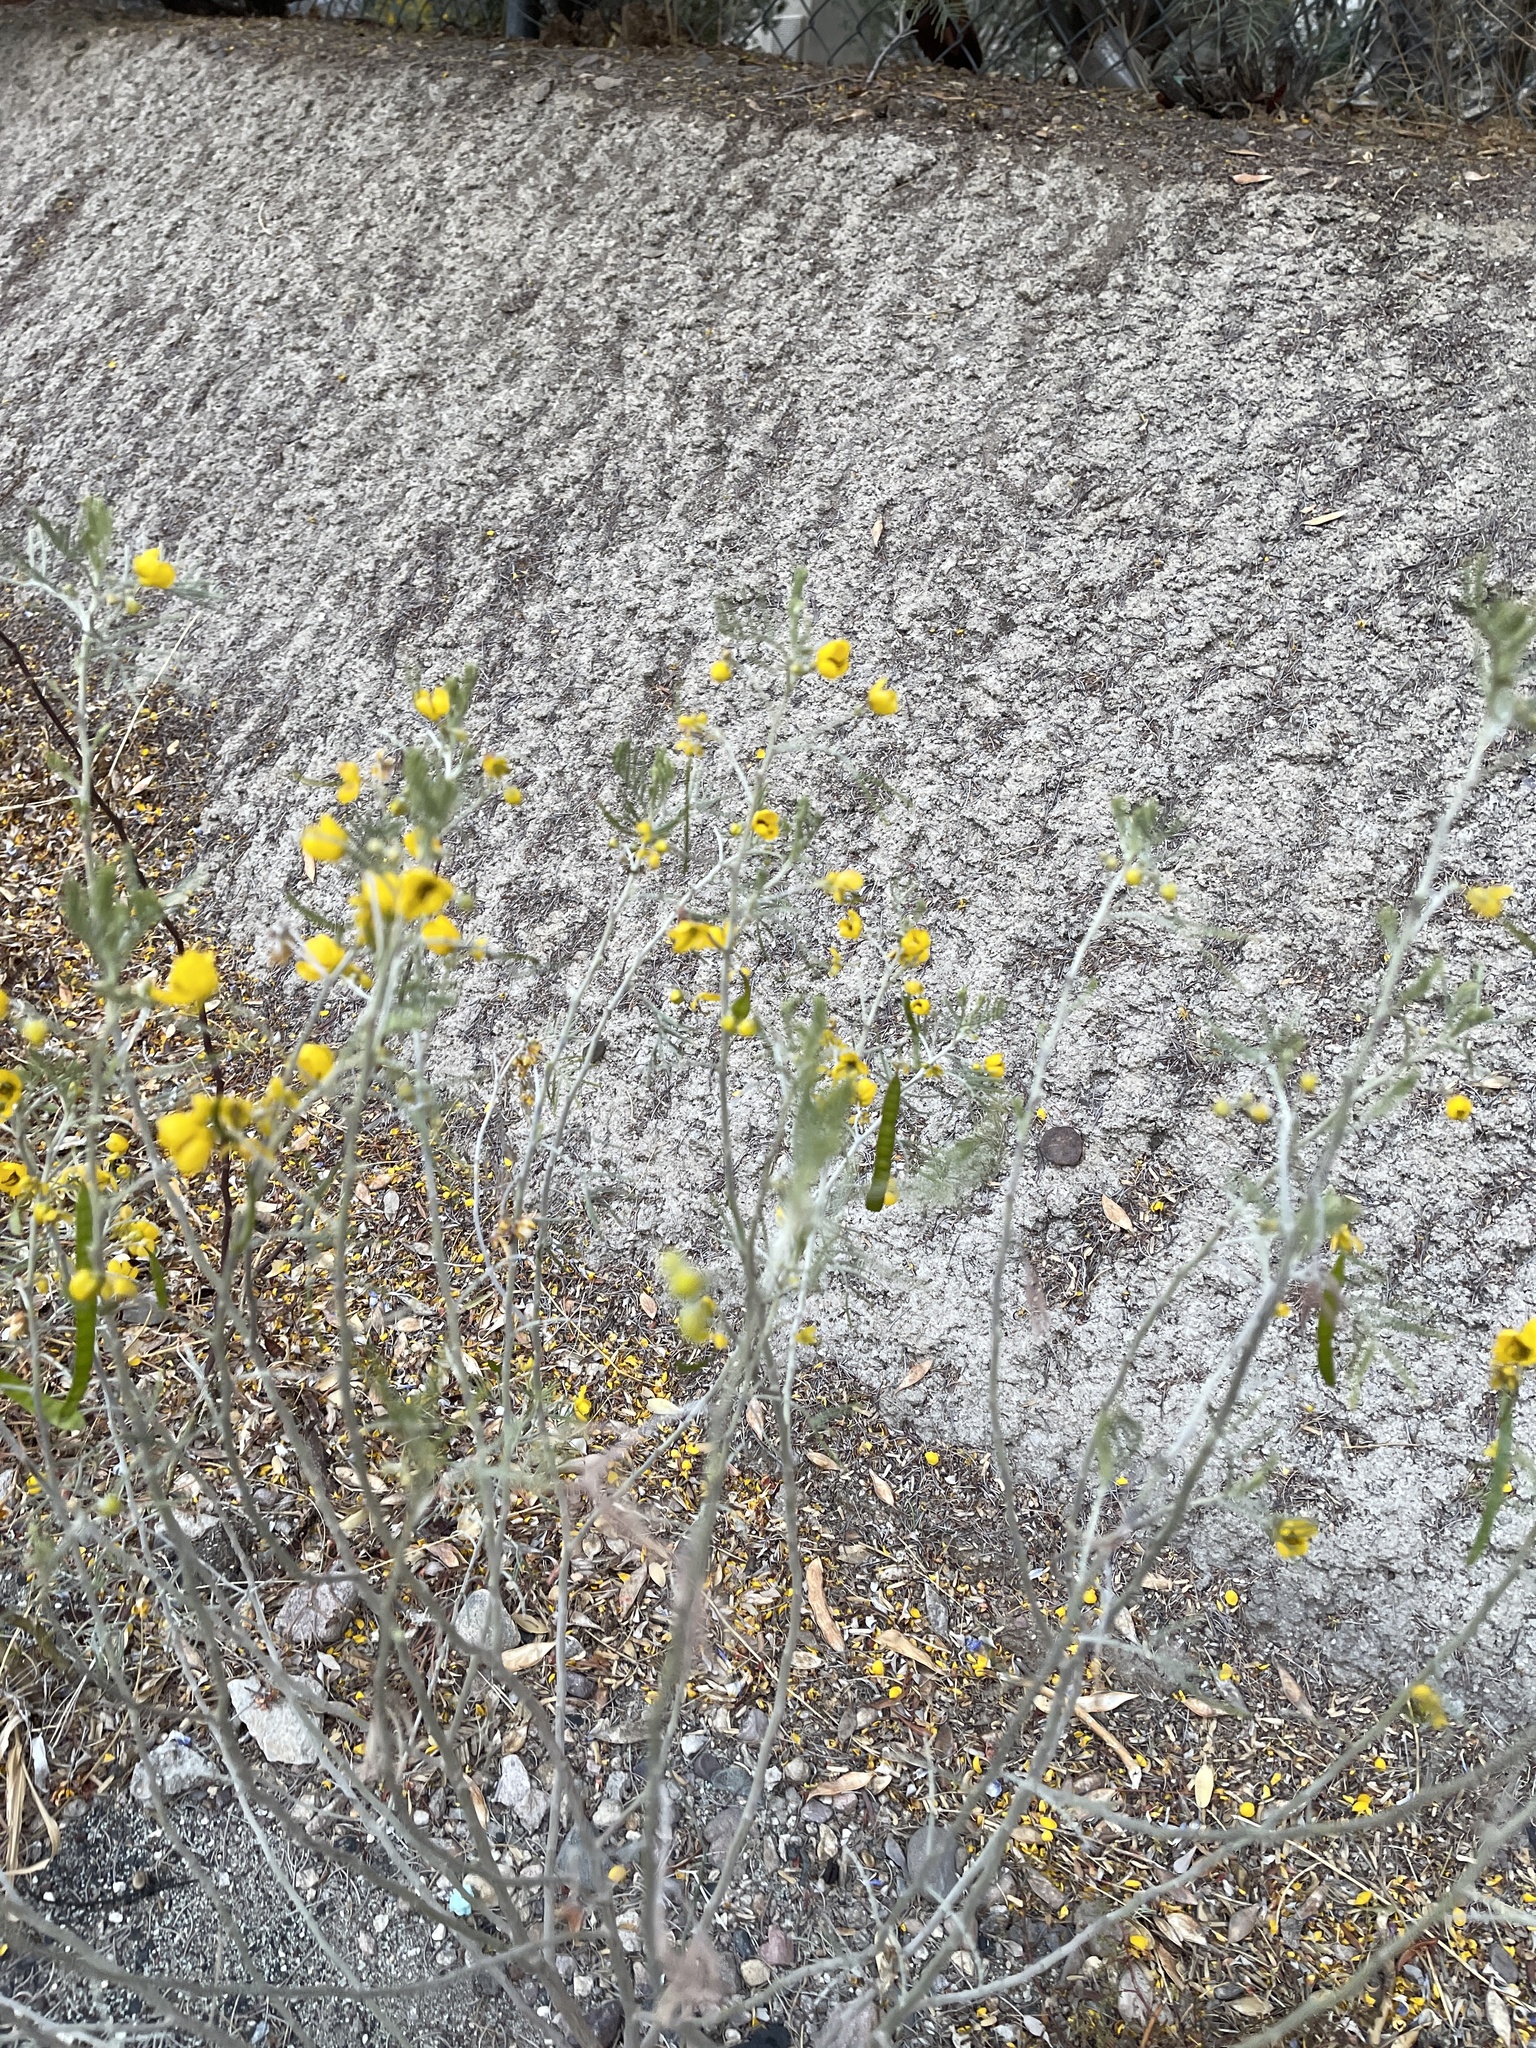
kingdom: Plantae
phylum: Tracheophyta
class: Magnoliopsida
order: Fabales
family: Fabaceae
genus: Senna
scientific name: Senna artemisioides
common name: Burnt-leaved acacia
